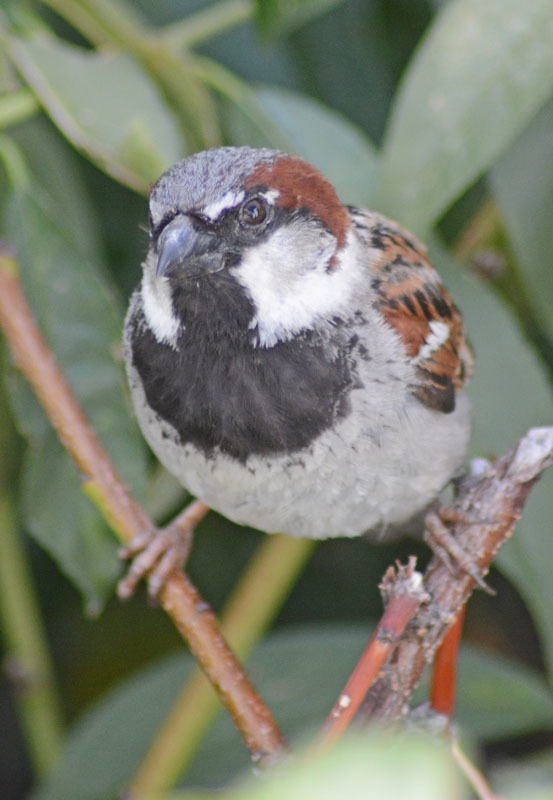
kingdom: Animalia
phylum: Chordata
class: Aves
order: Passeriformes
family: Passeridae
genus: Passer
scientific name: Passer domesticus
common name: House sparrow
